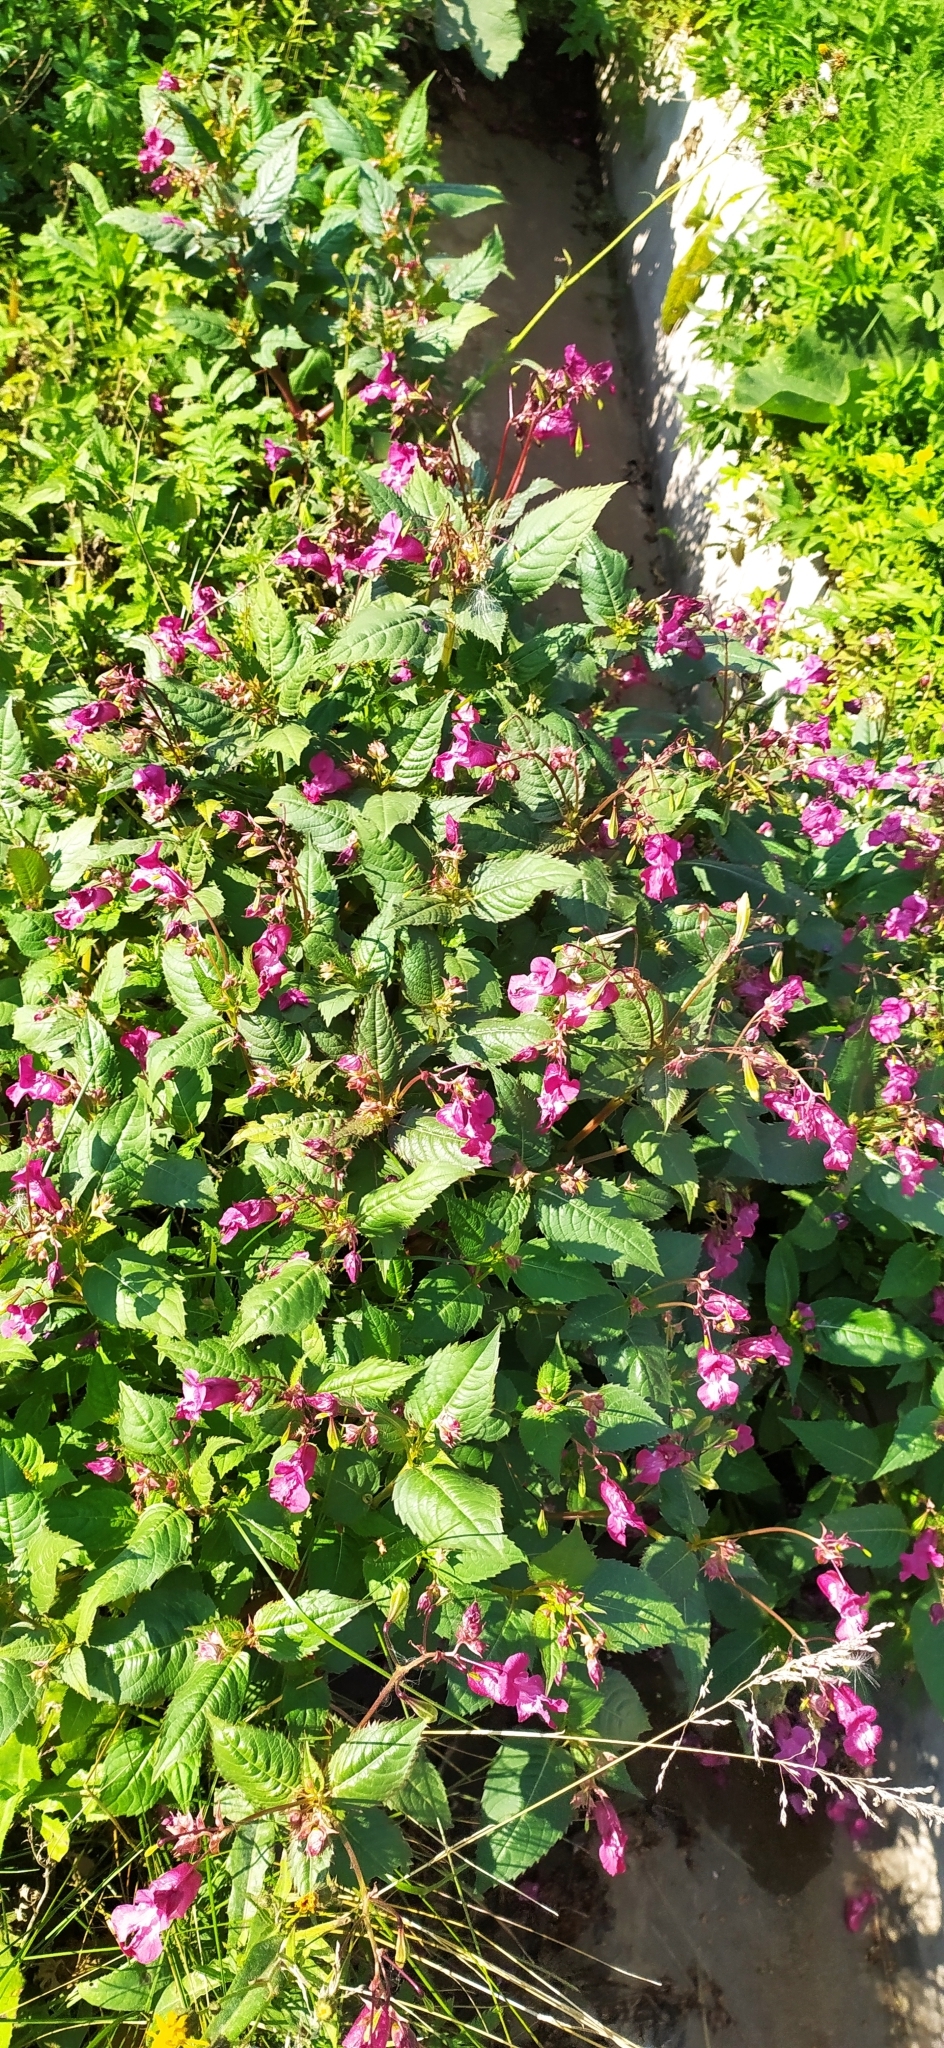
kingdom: Plantae
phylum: Tracheophyta
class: Magnoliopsida
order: Ericales
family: Balsaminaceae
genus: Impatiens
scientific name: Impatiens glandulifera
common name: Himalayan balsam
